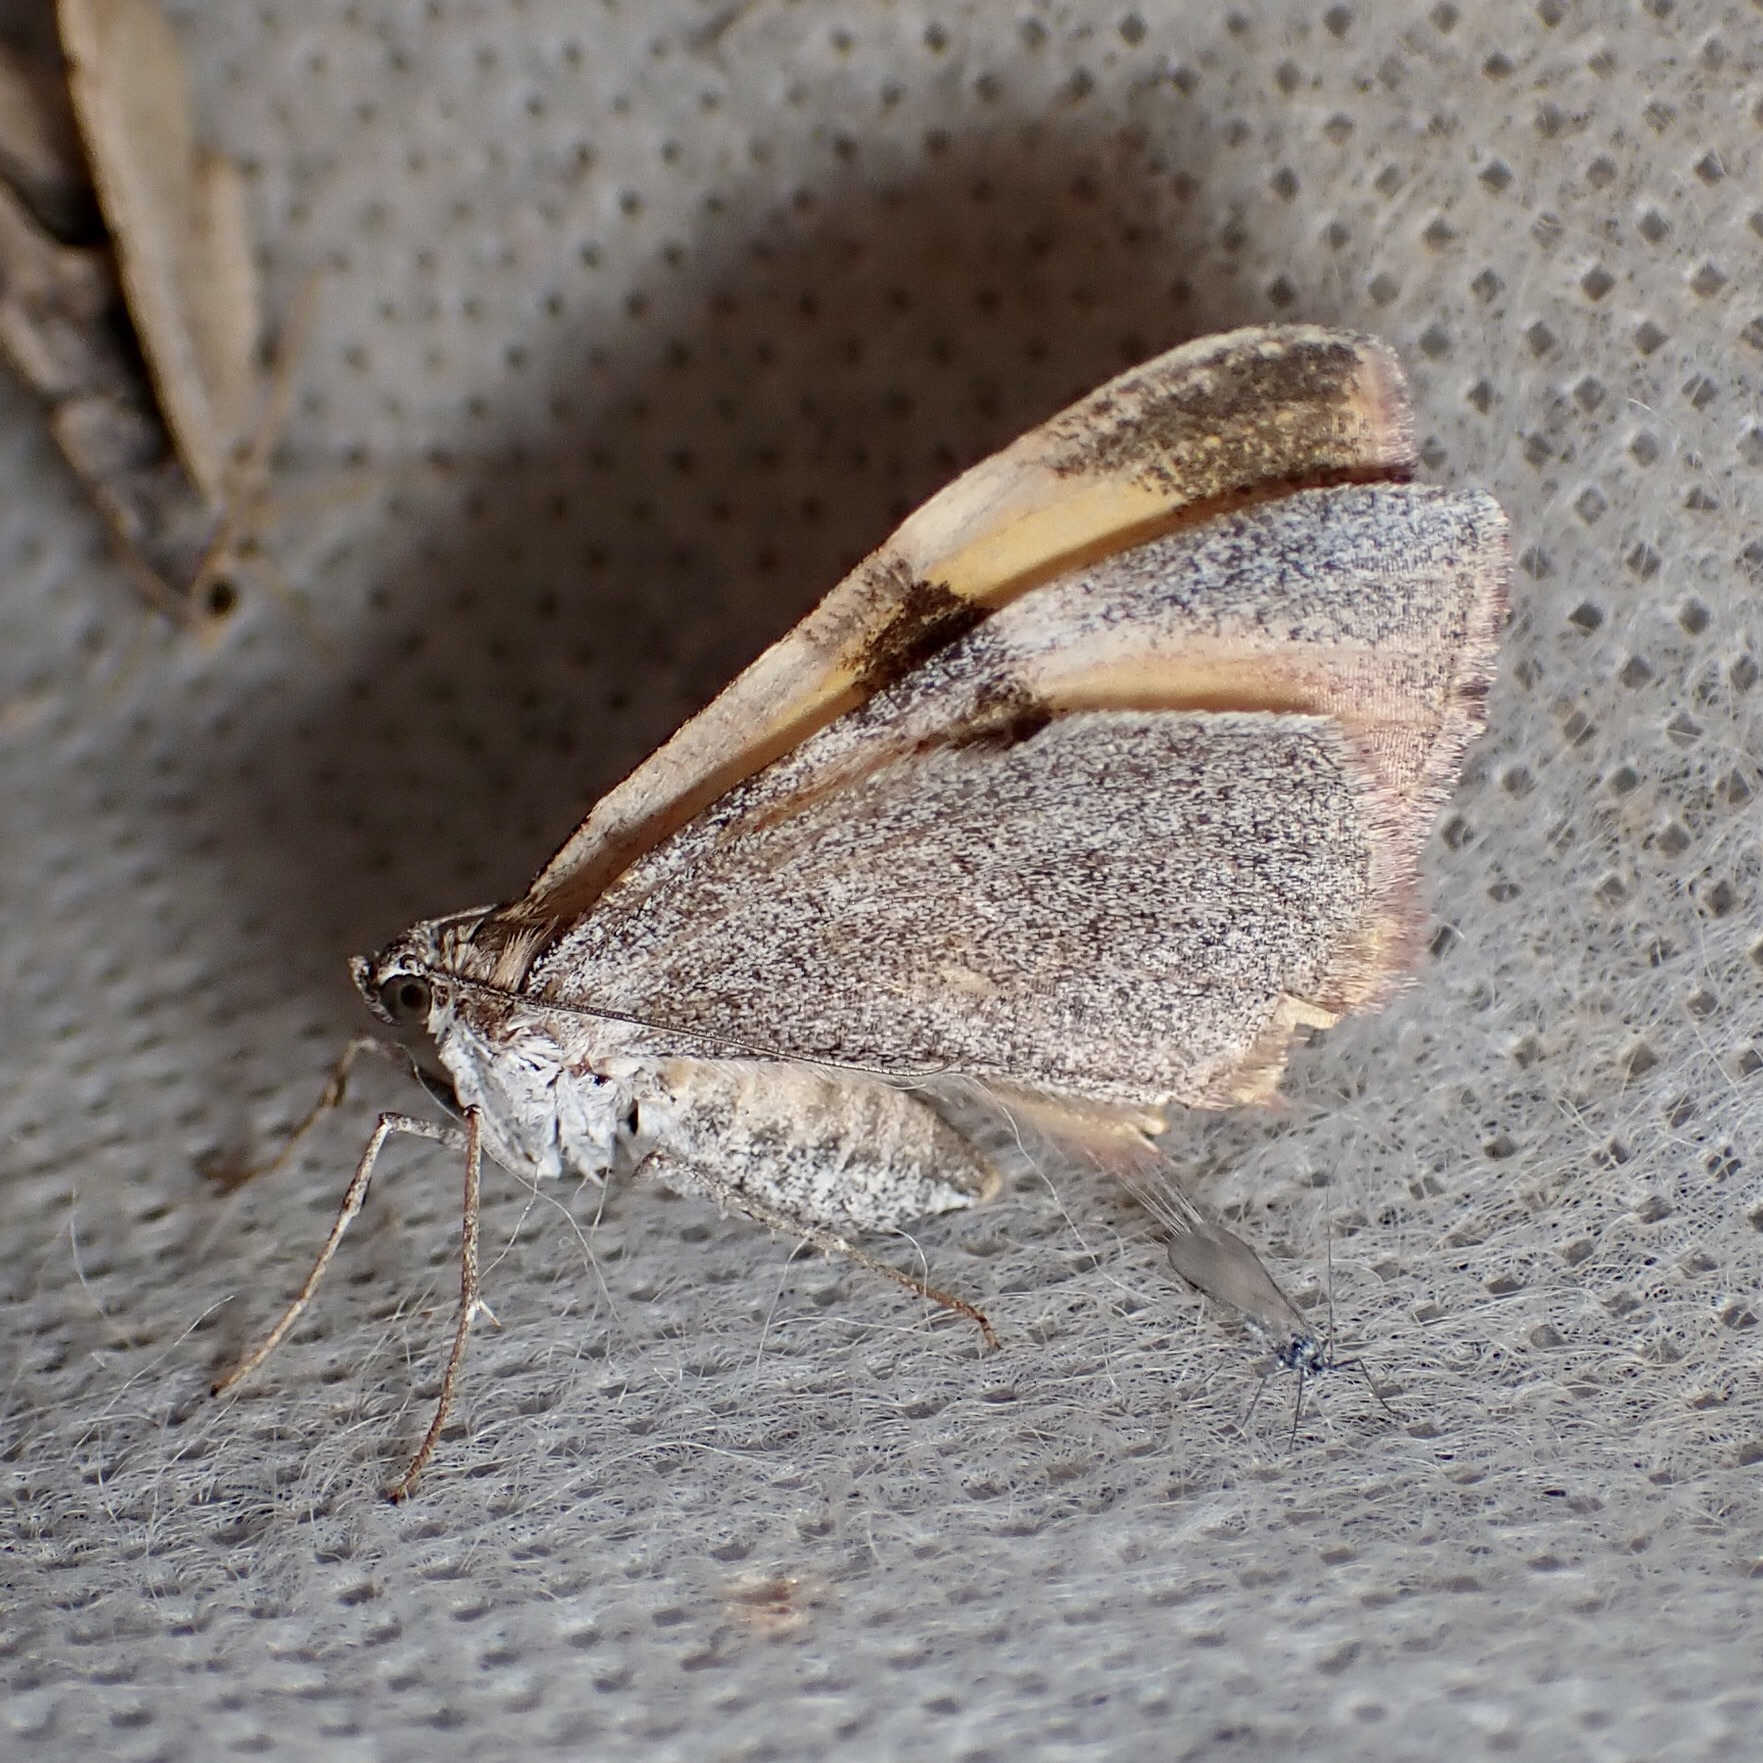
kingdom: Animalia
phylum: Arthropoda
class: Insecta
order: Lepidoptera
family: Geometridae
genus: Stamnodes
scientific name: Stamnodes seiferti
